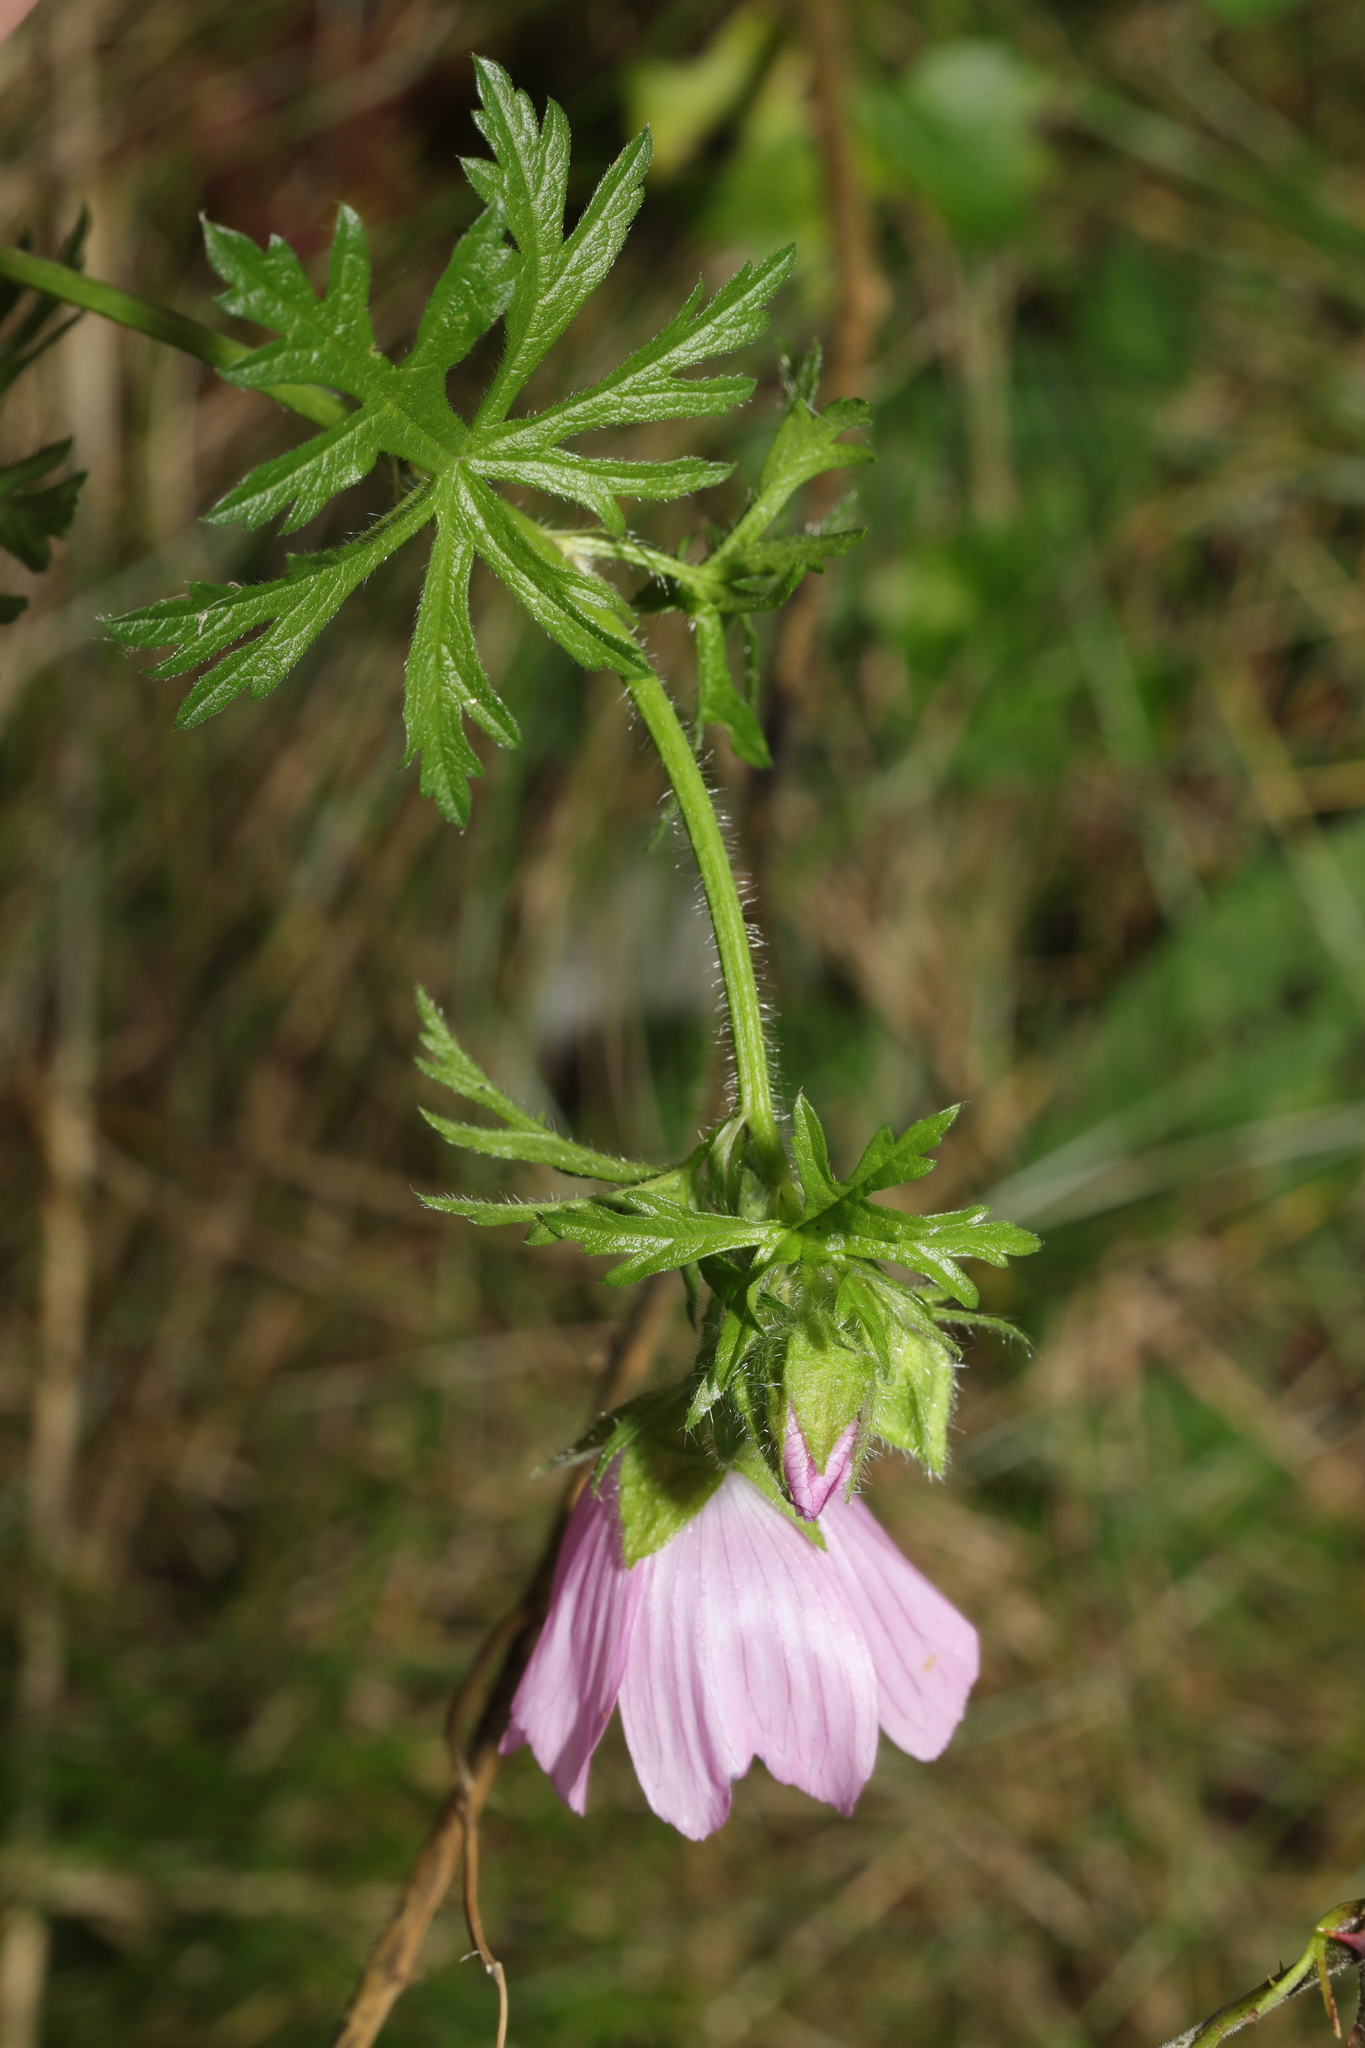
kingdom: Plantae
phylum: Tracheophyta
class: Magnoliopsida
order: Malvales
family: Malvaceae
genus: Malva
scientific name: Malva moschata
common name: Musk mallow
